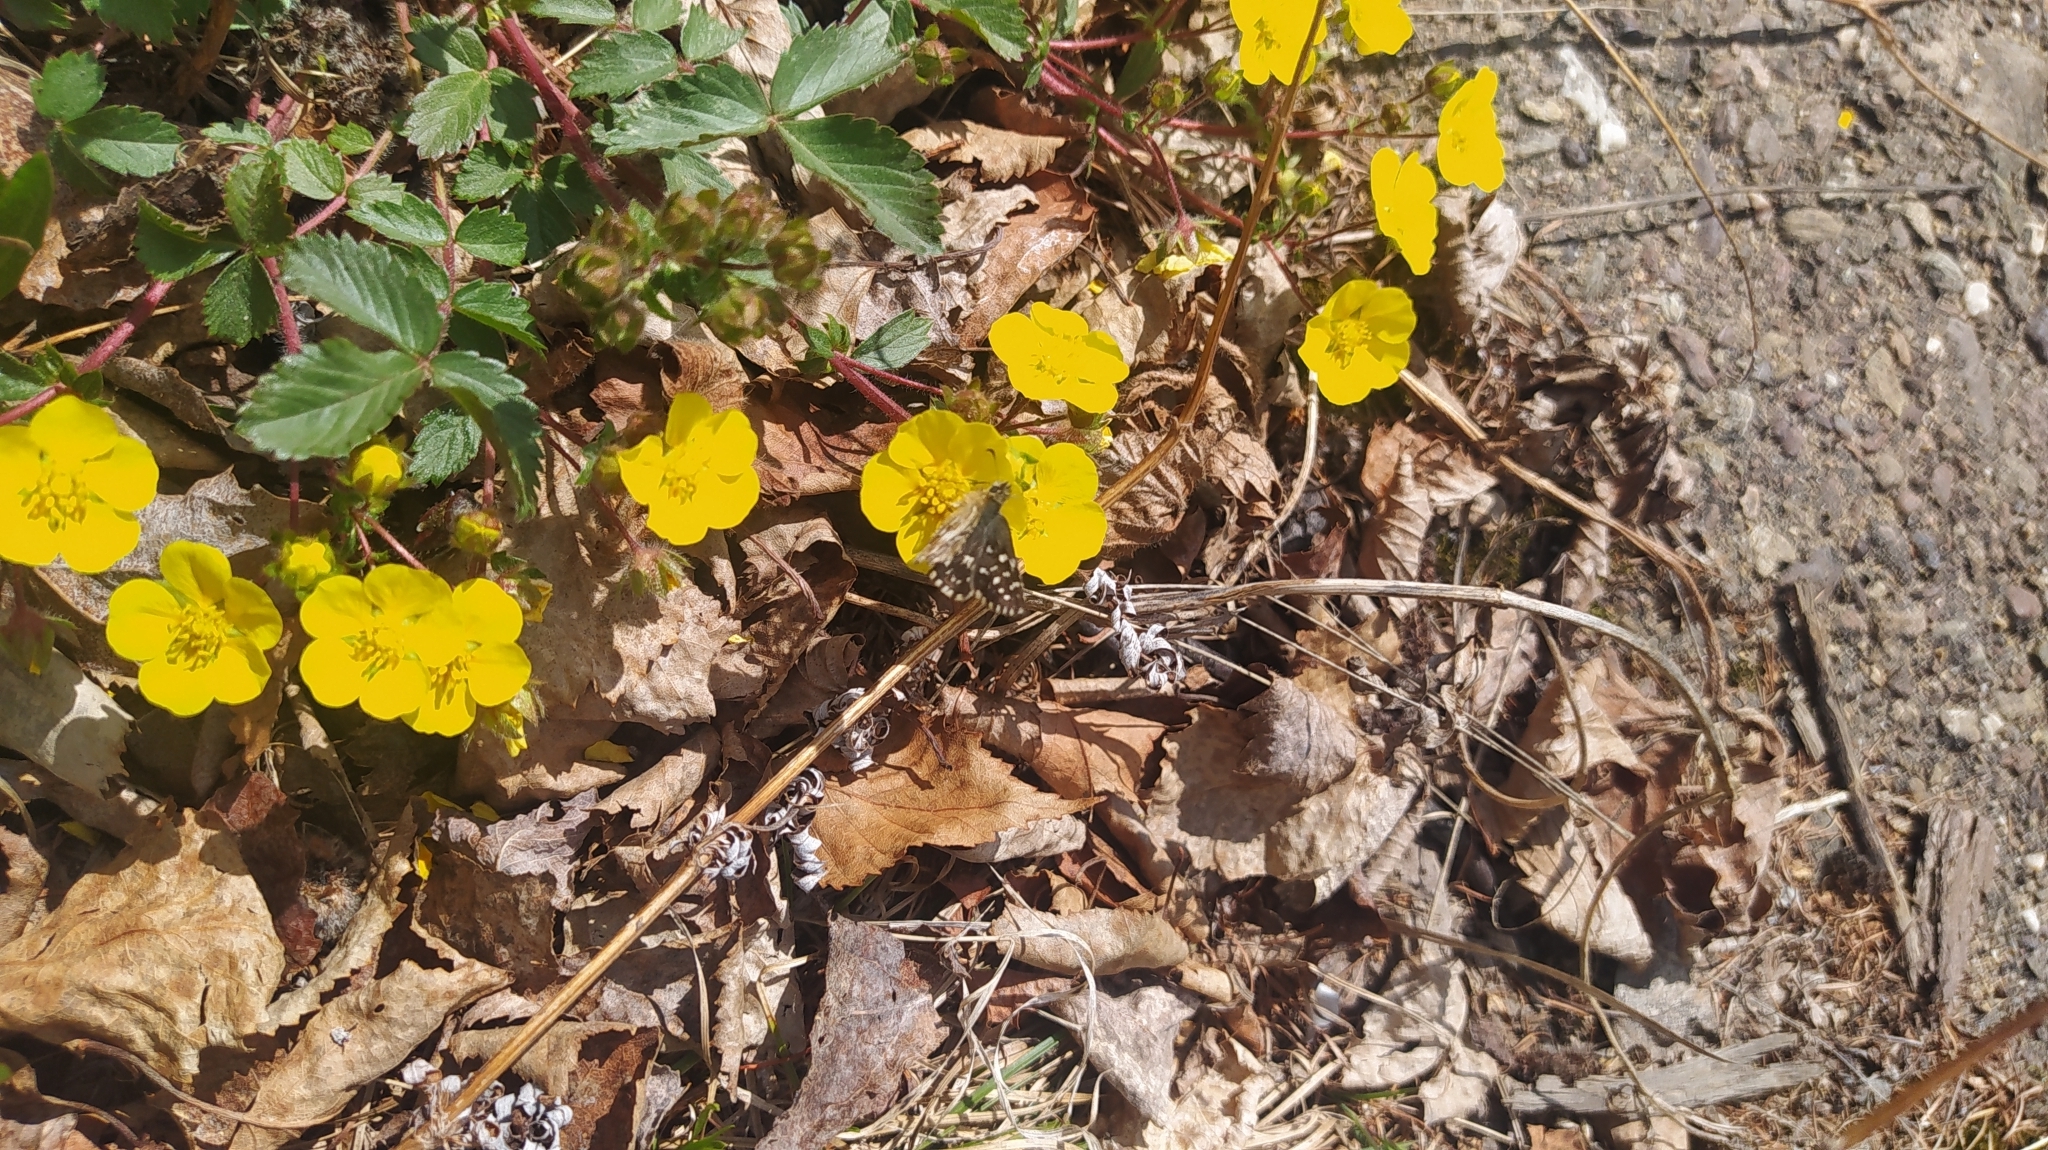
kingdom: Plantae
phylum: Tracheophyta
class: Magnoliopsida
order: Rosales
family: Rosaceae
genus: Potentilla
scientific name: Potentilla fragarioides
